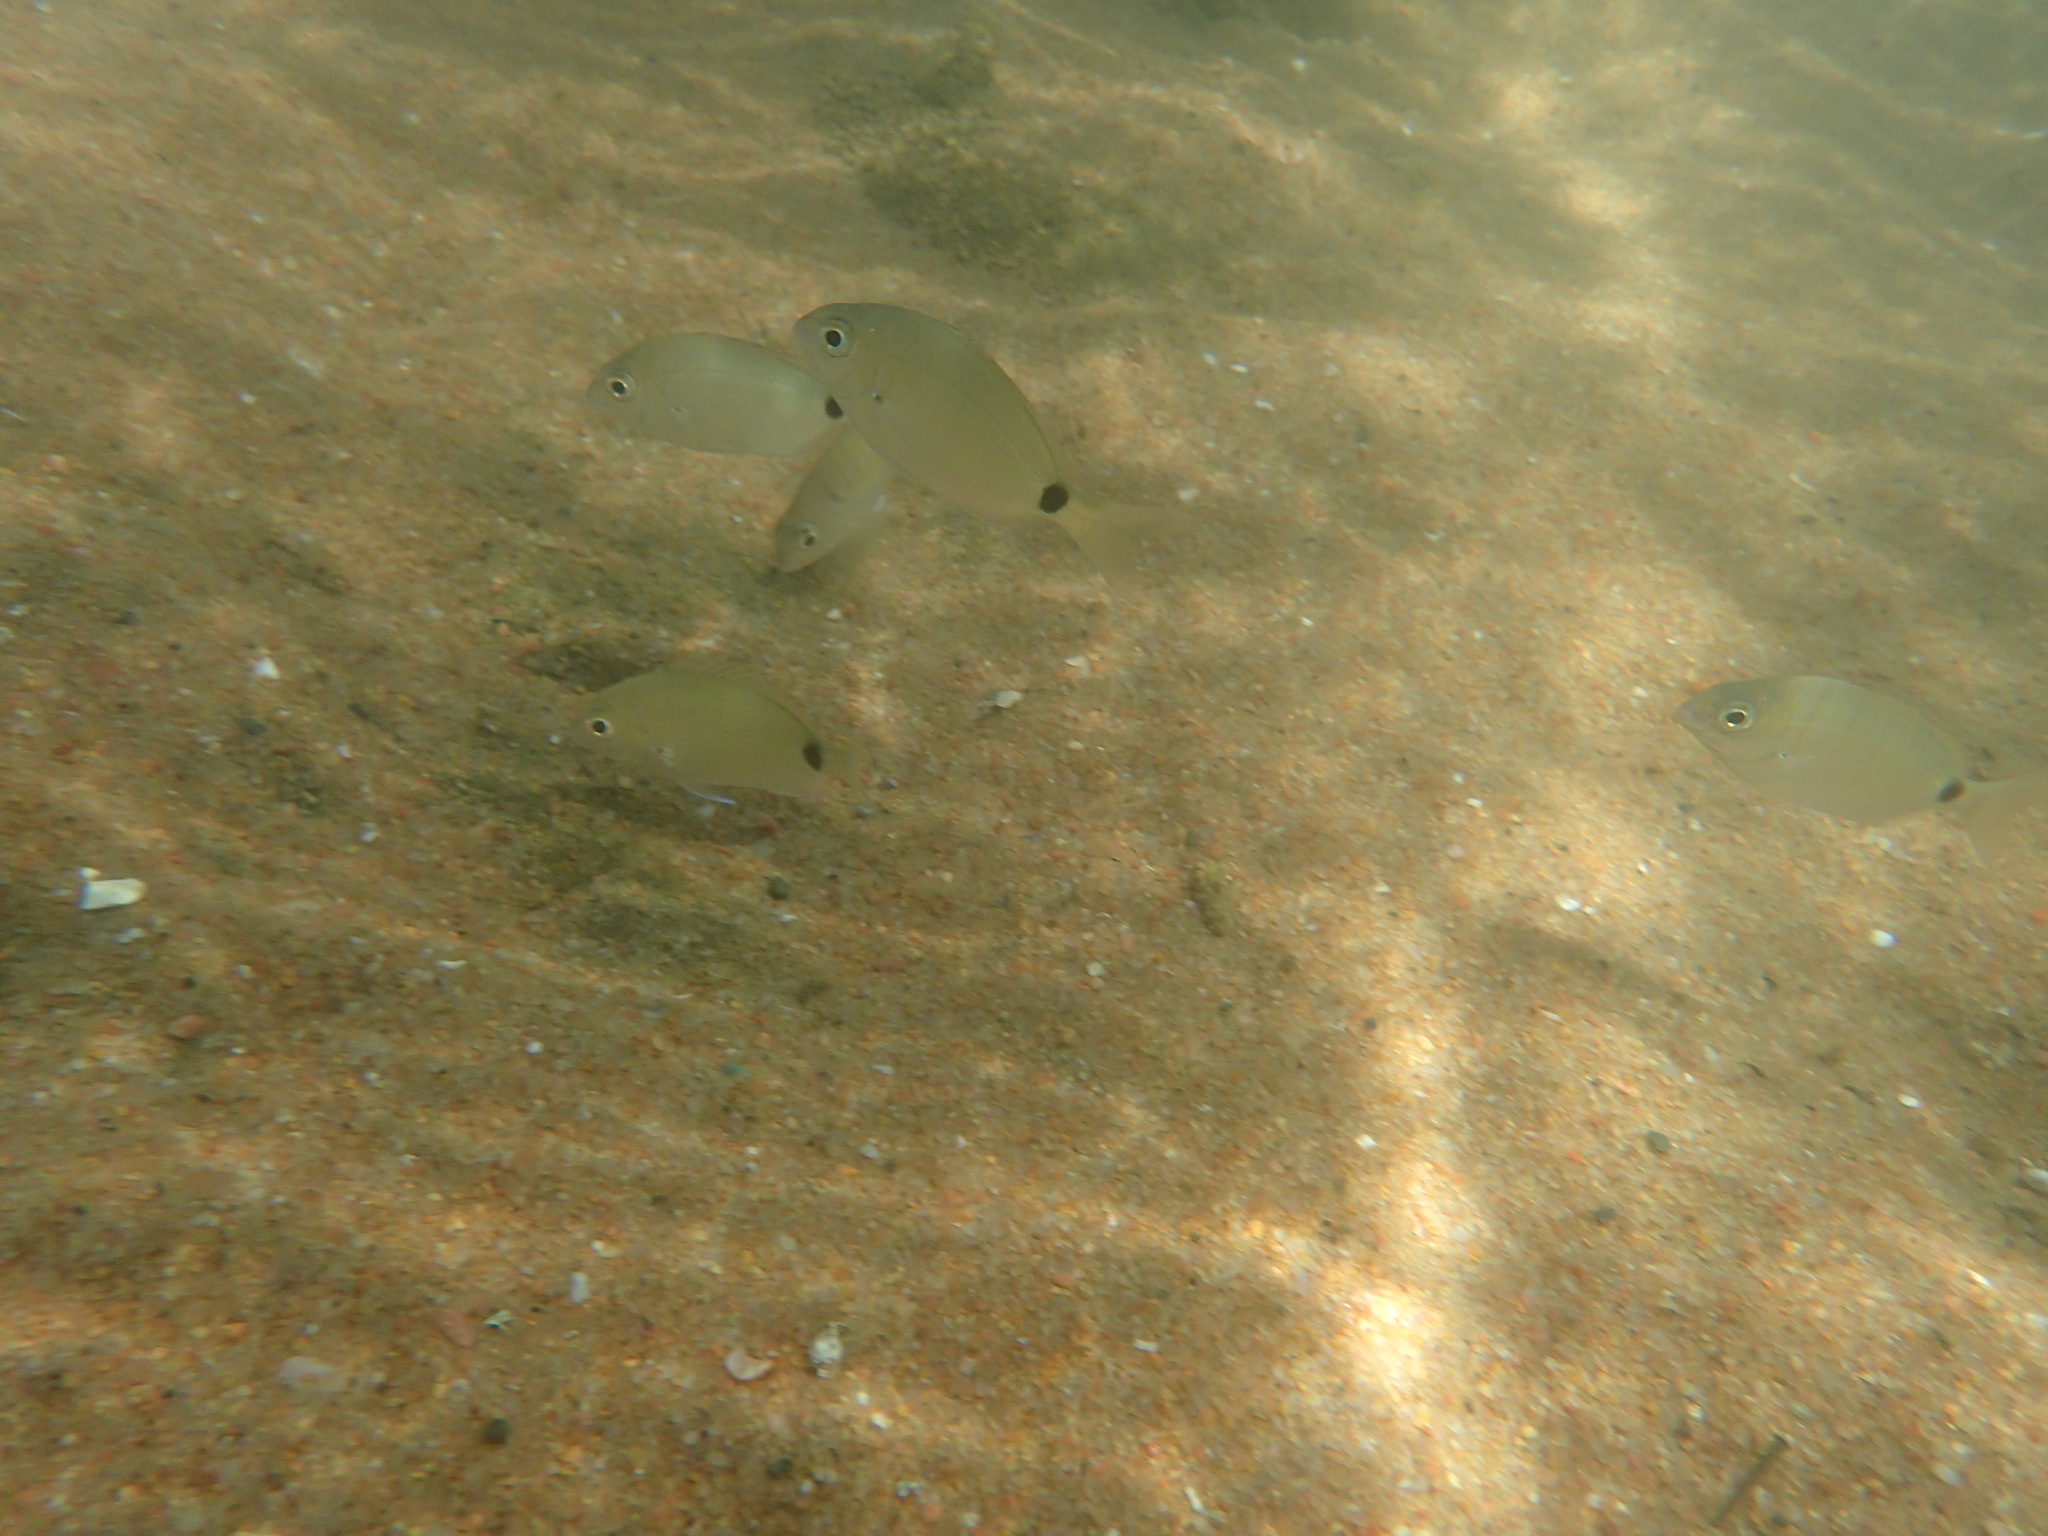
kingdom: Animalia
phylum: Chordata
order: Perciformes
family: Sparidae
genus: Diplodus
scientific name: Diplodus capensis
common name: Blacktail
